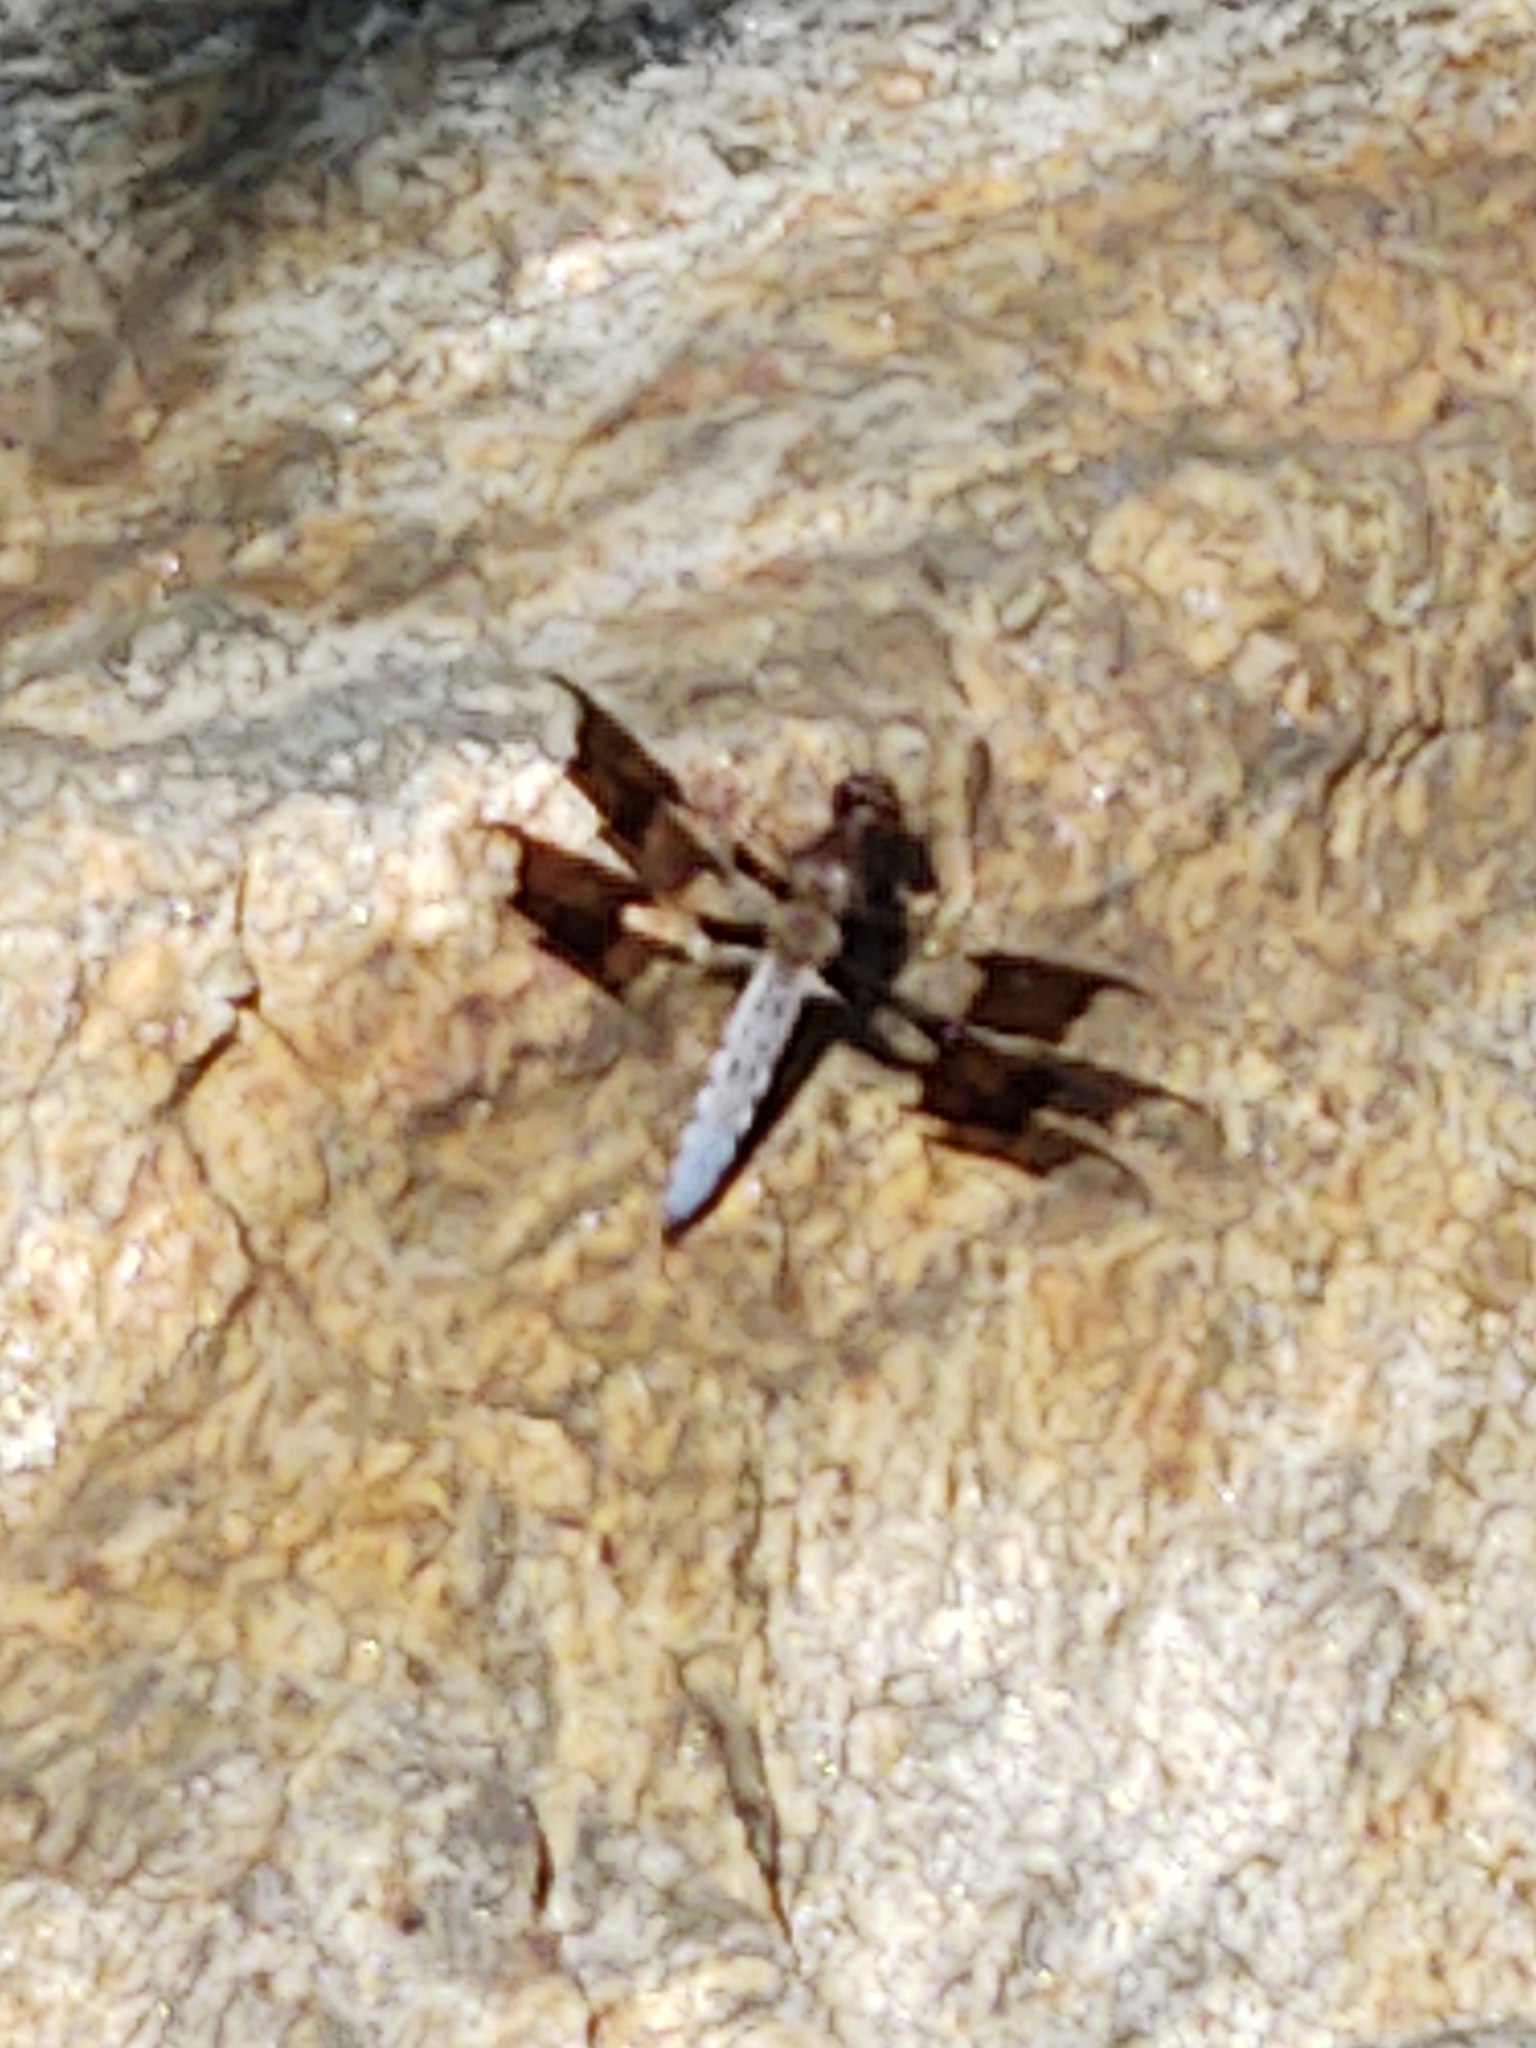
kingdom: Animalia
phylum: Arthropoda
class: Insecta
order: Odonata
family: Libellulidae
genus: Plathemis
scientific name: Plathemis lydia
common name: Common whitetail
